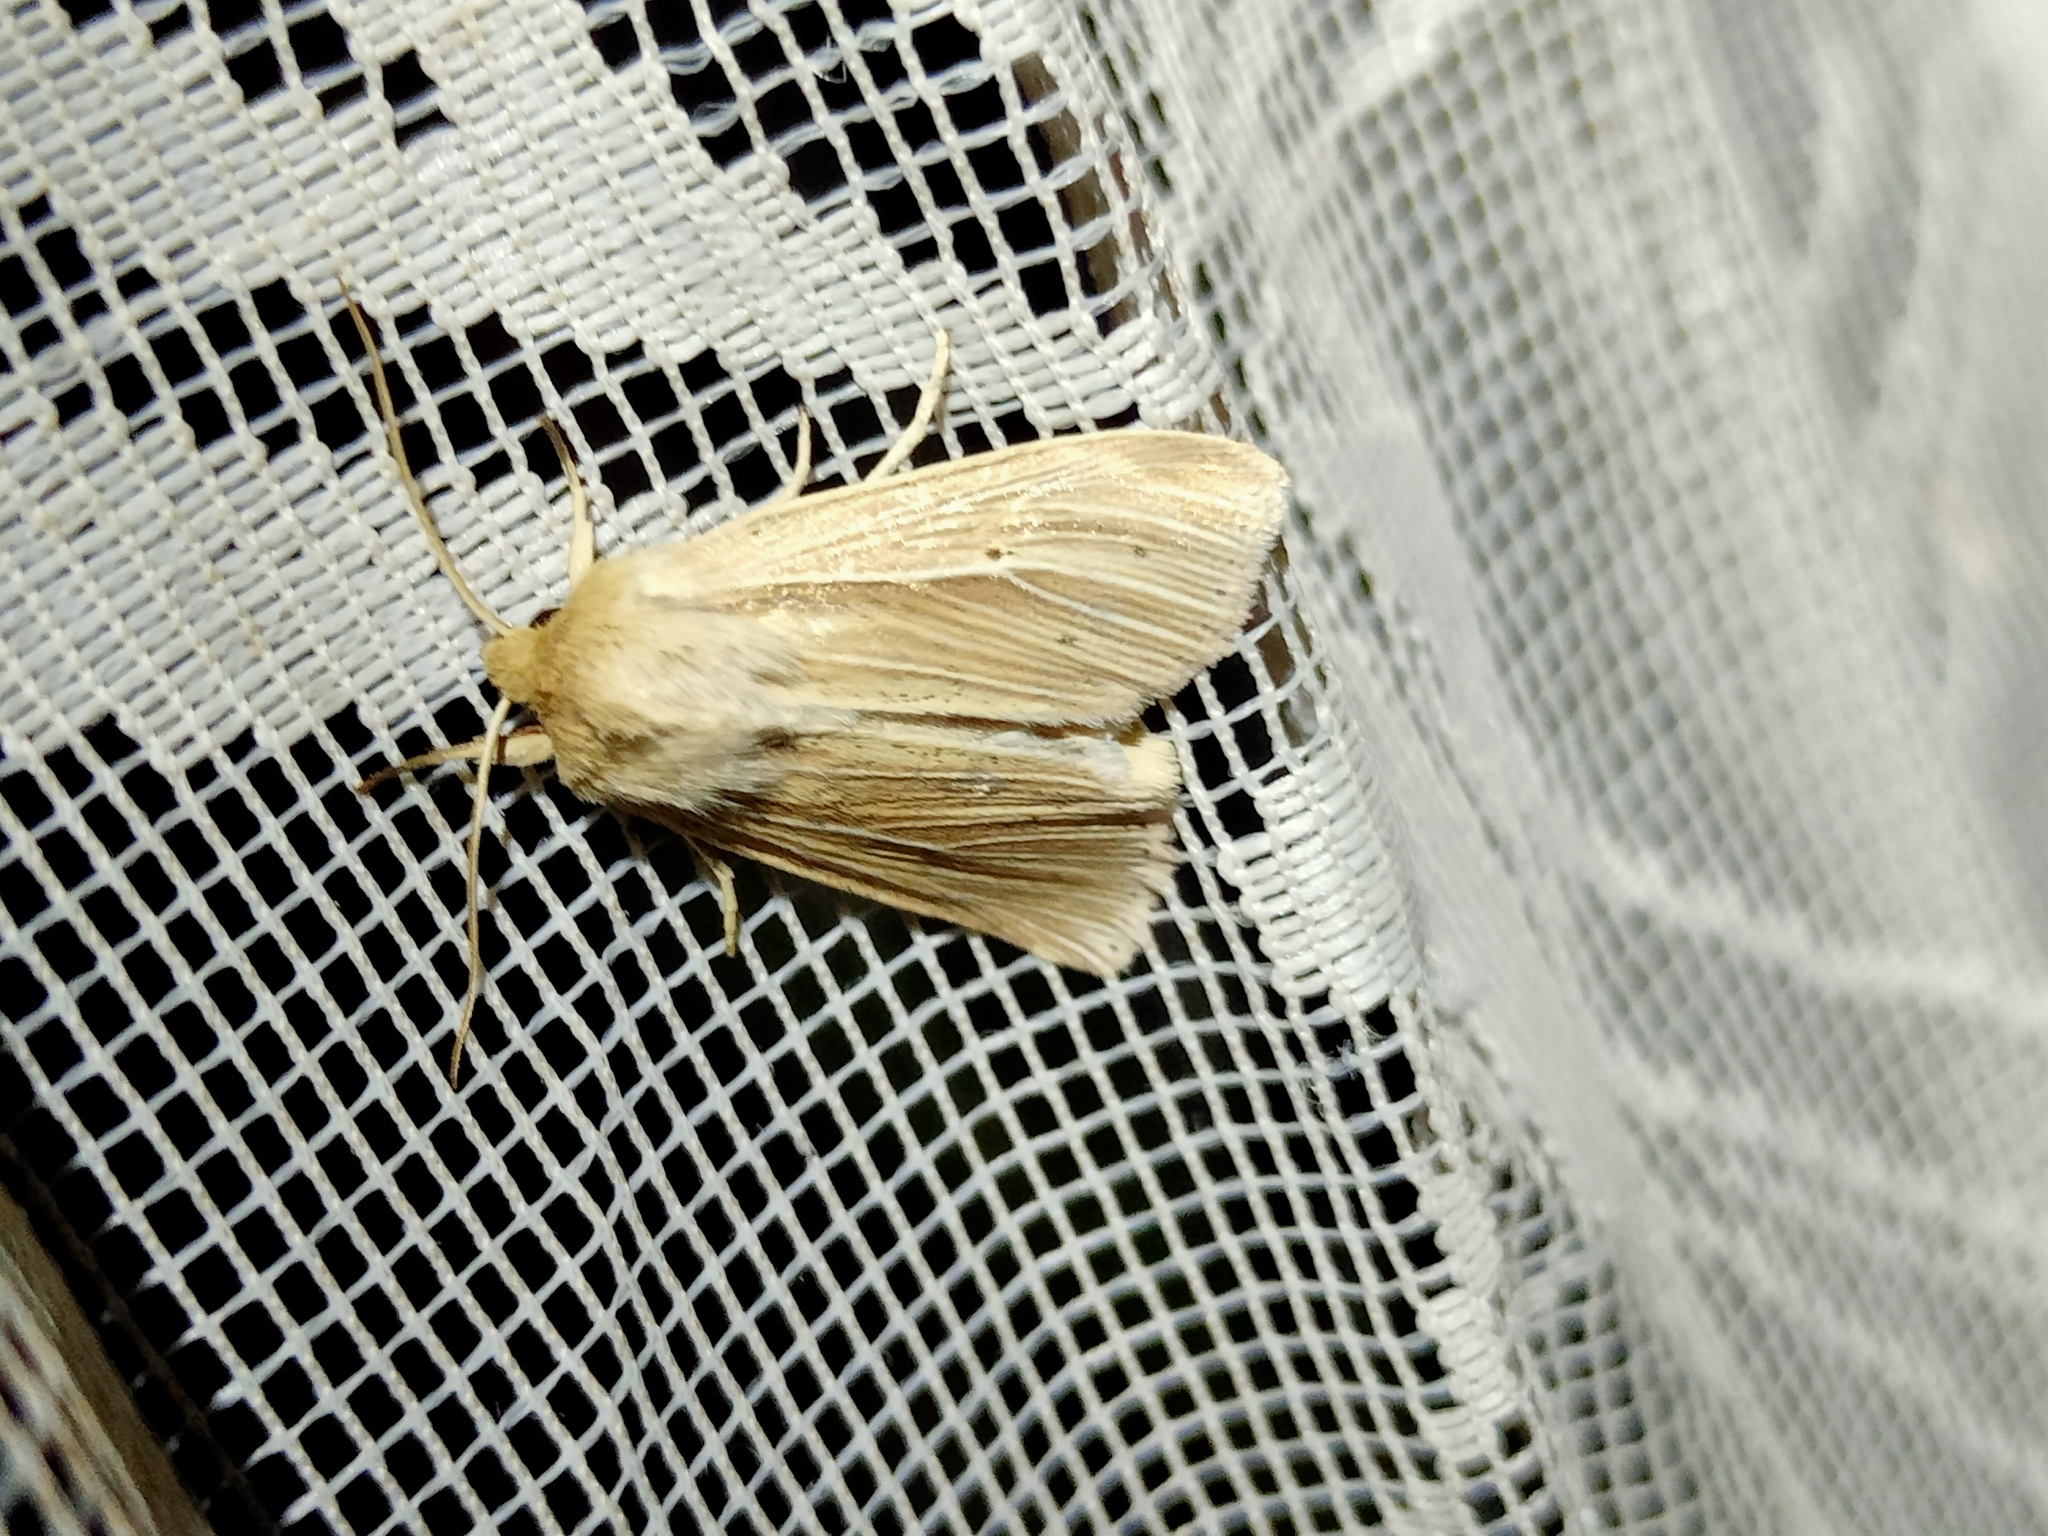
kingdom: Animalia
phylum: Arthropoda
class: Insecta
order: Lepidoptera
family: Noctuidae
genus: Mythimna
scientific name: Mythimna impura
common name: Smoky wainscot
